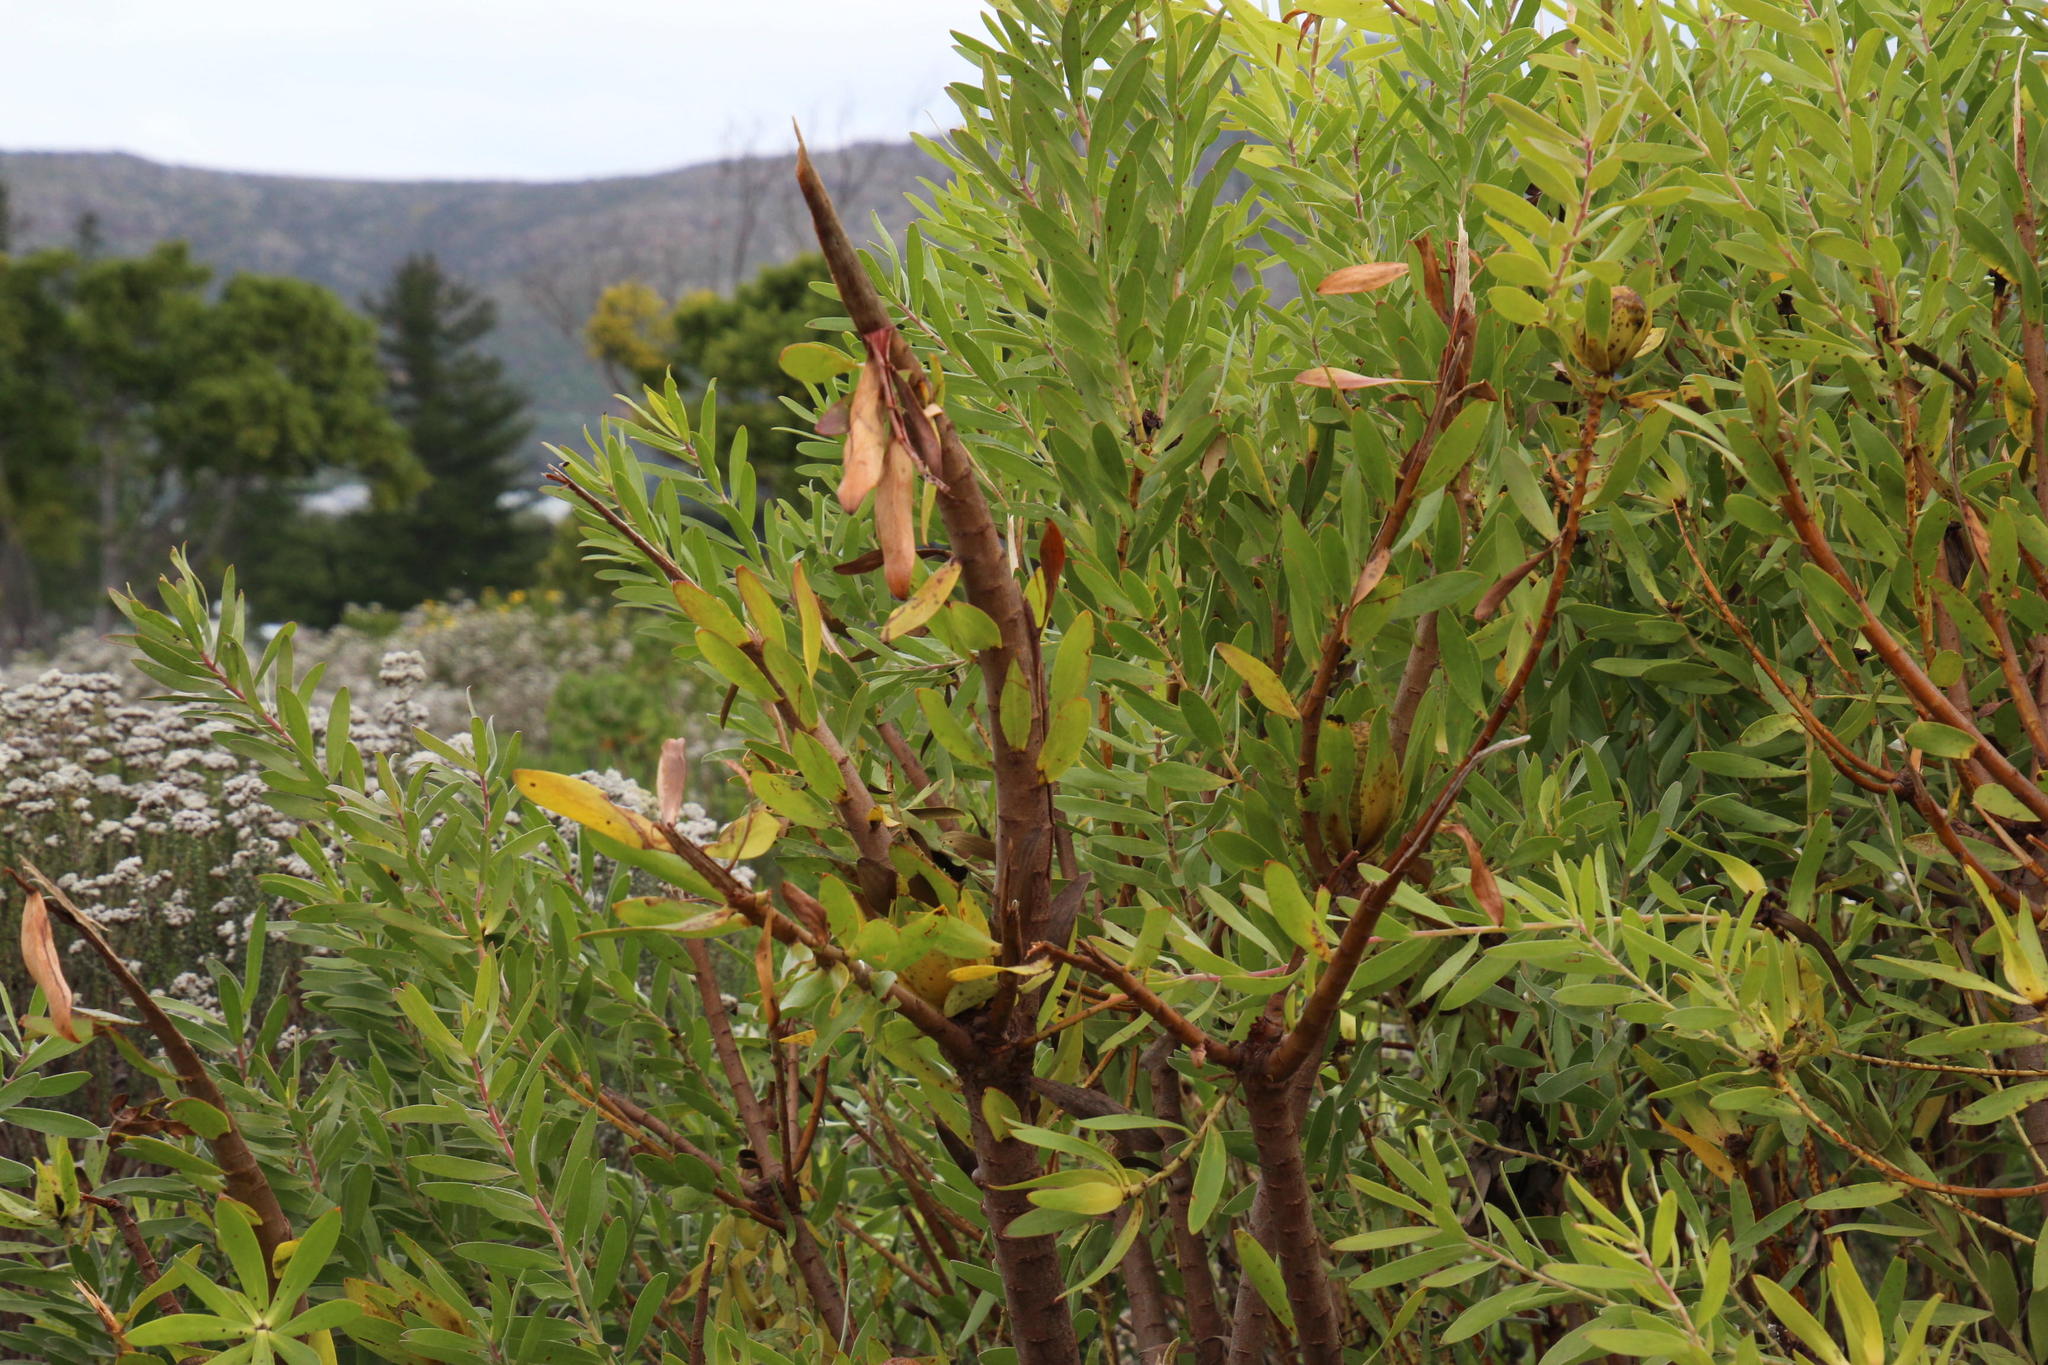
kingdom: Plantae
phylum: Tracheophyta
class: Magnoliopsida
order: Proteales
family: Proteaceae
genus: Leucadendron
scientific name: Leucadendron laureolum
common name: Golden sunshinebush
